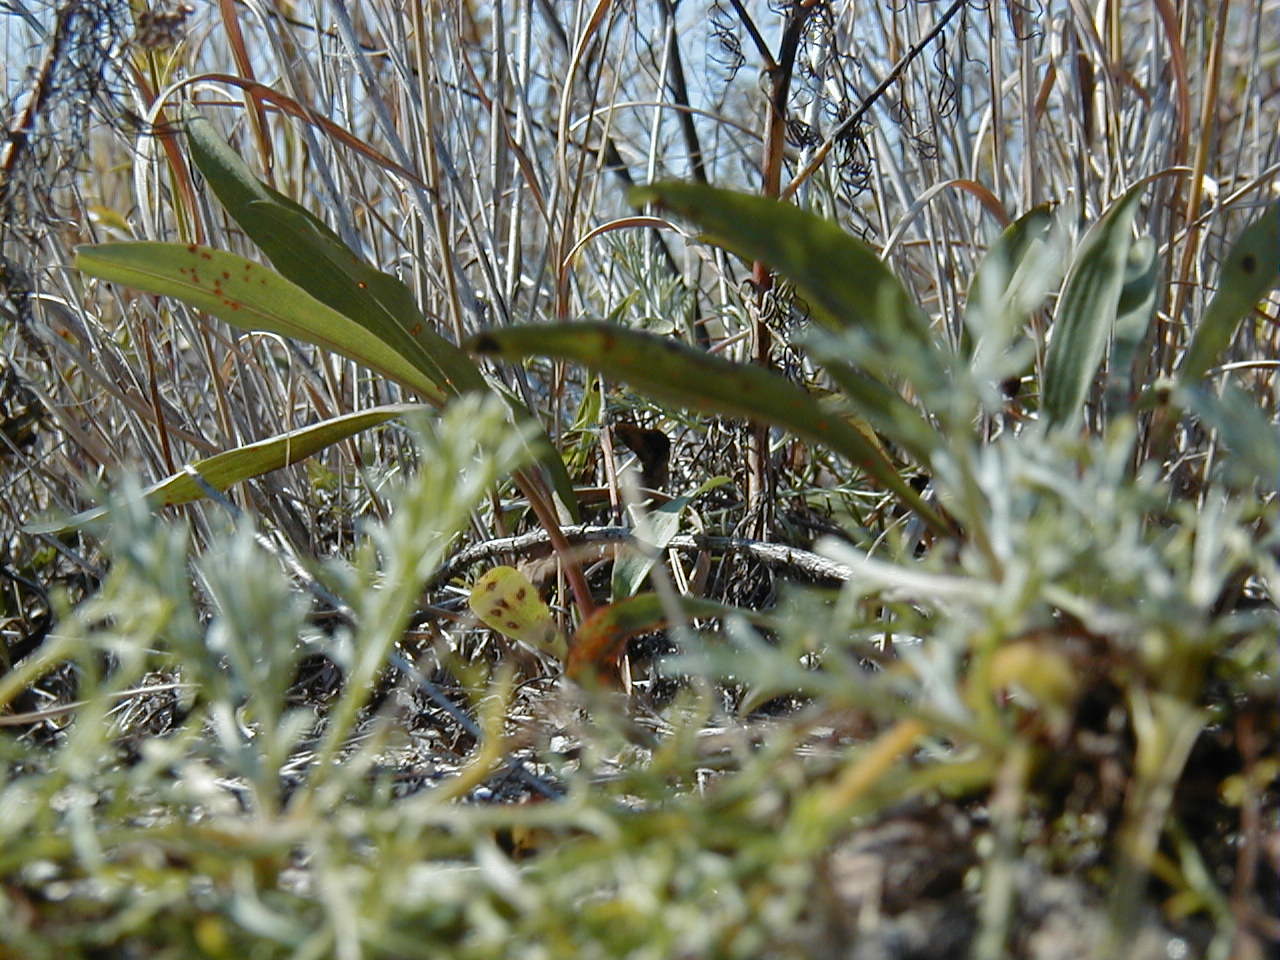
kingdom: Plantae
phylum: Tracheophyta
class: Magnoliopsida
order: Asterales
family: Asteraceae
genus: Solidago
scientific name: Solidago sempervirens
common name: Salt-marsh goldenrod
